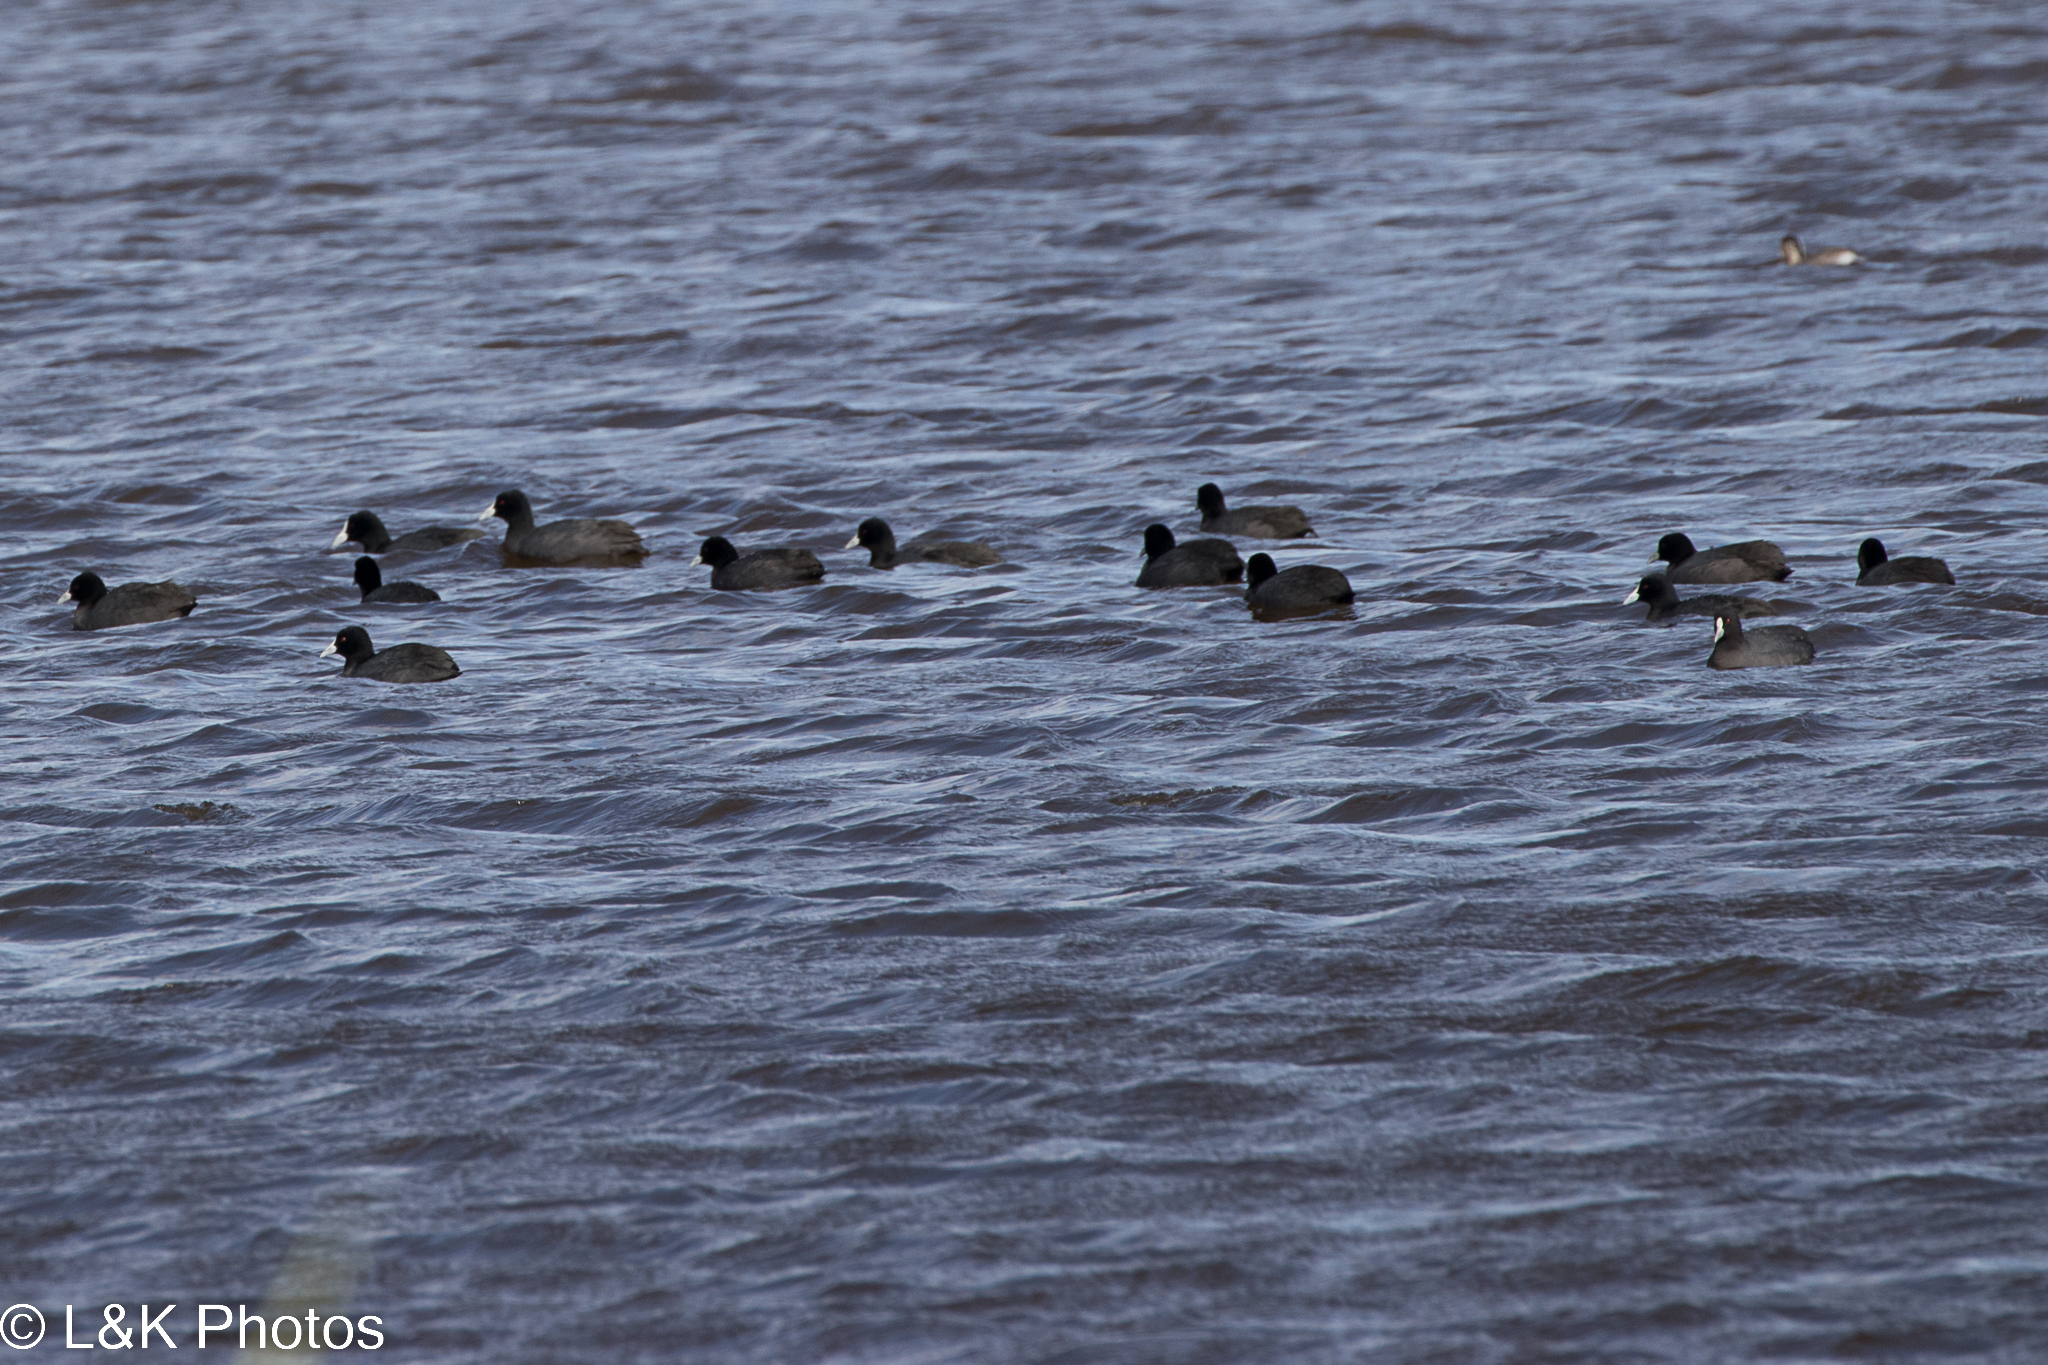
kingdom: Animalia
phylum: Chordata
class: Aves
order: Gruiformes
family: Rallidae
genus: Fulica
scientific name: Fulica atra
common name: Eurasian coot
